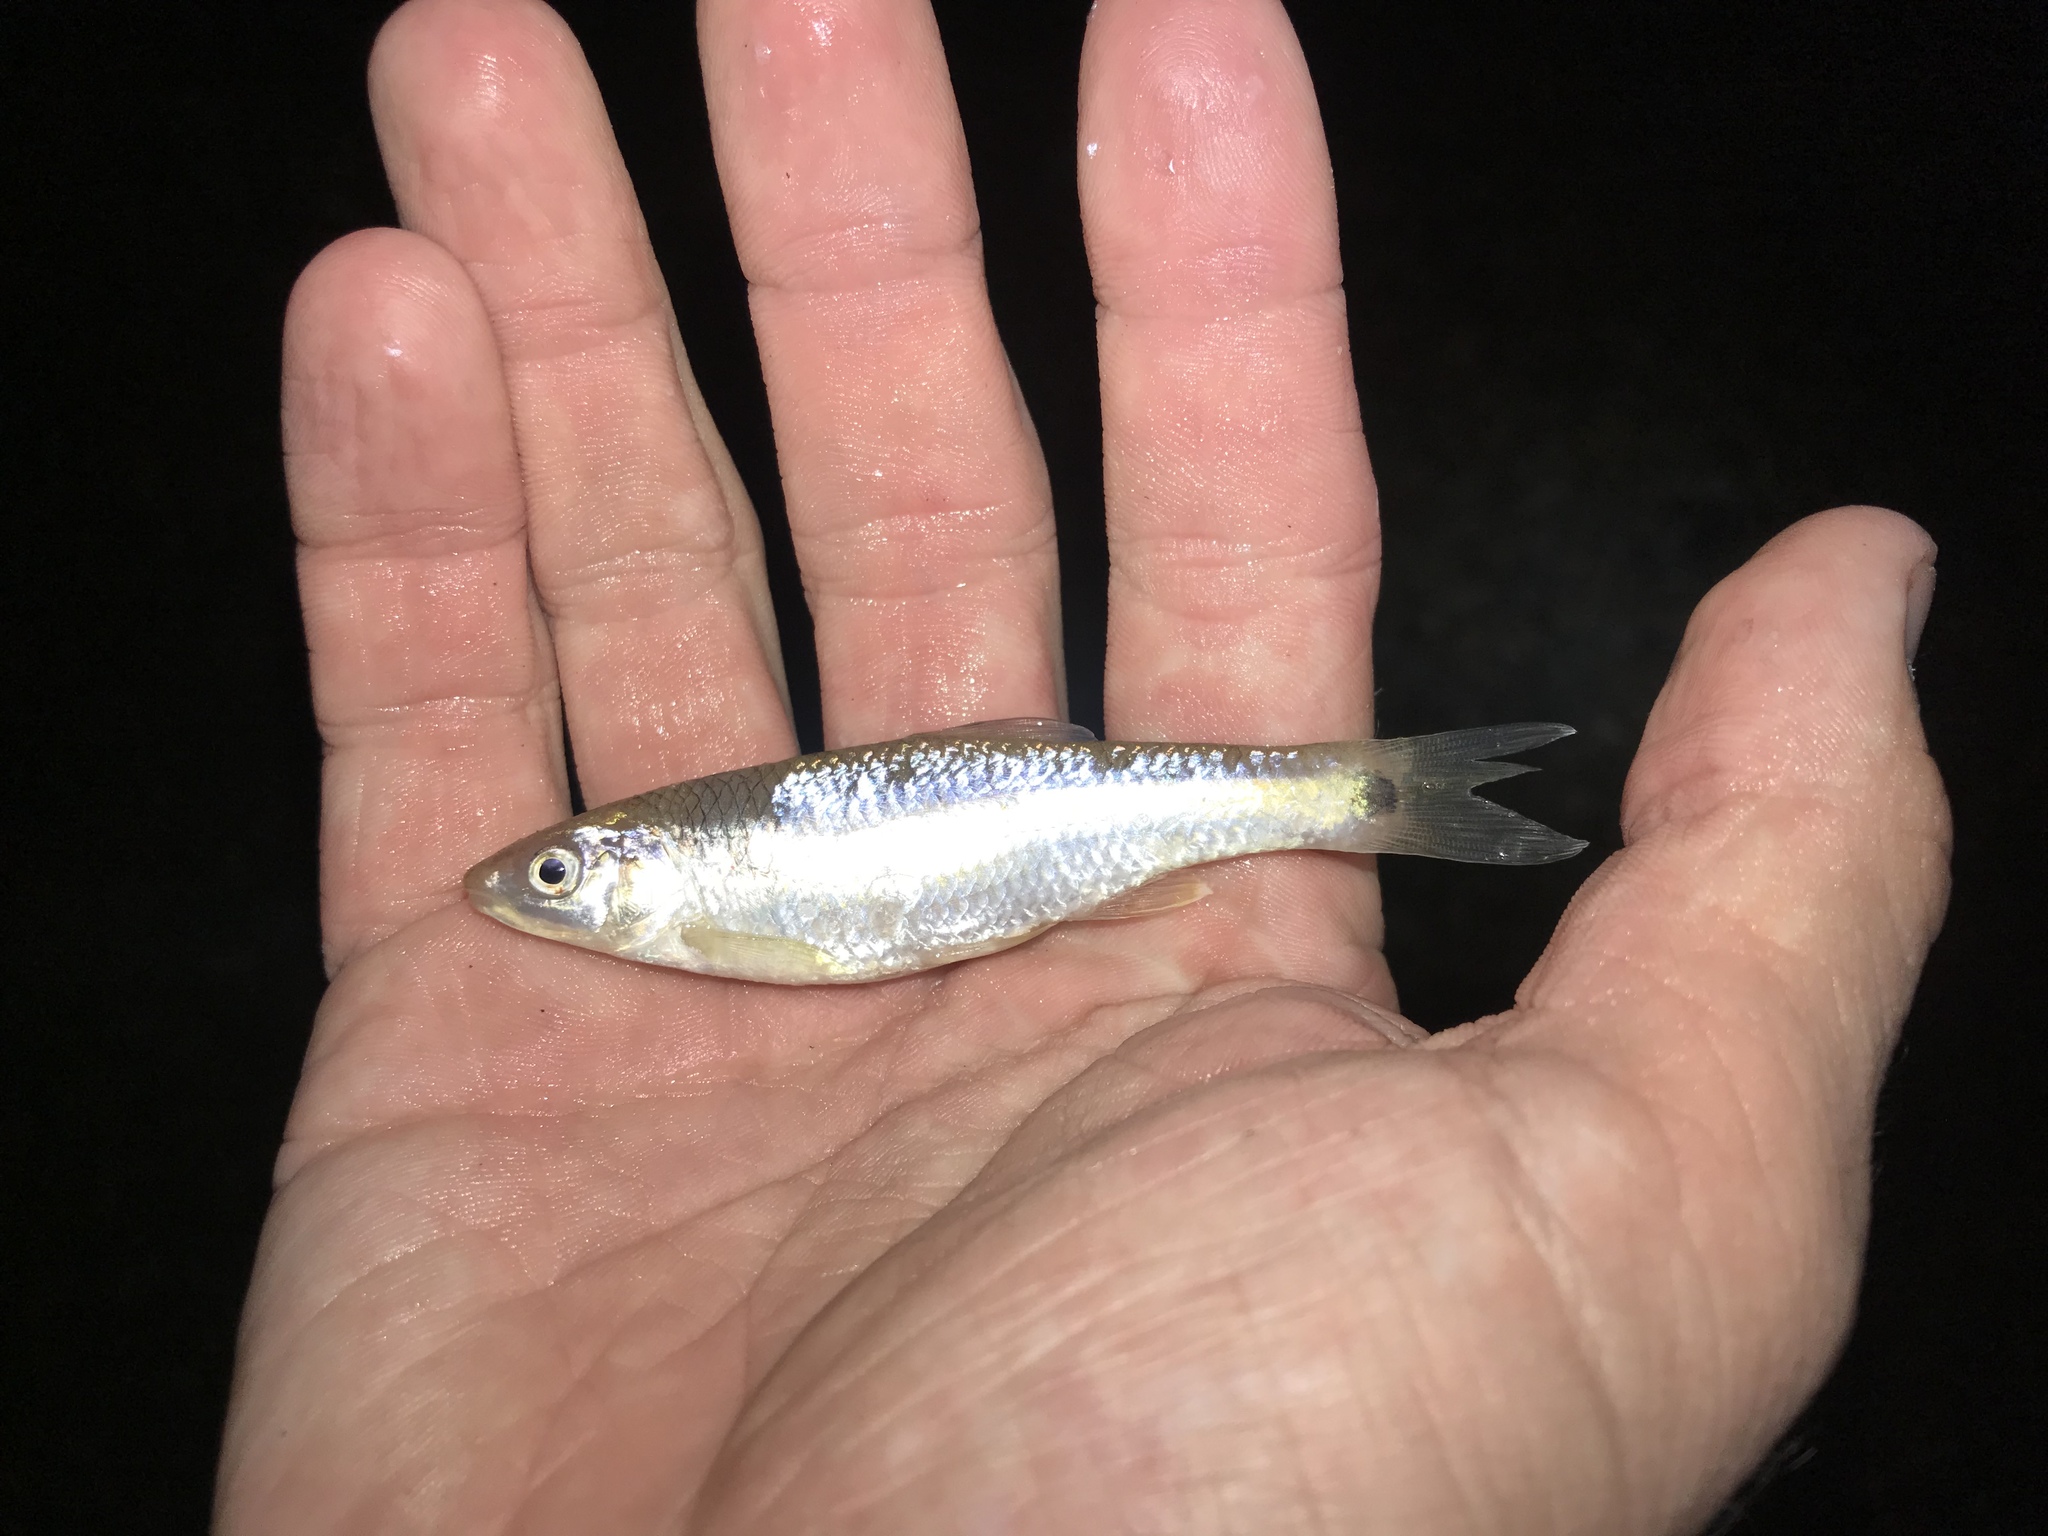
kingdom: Animalia
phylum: Chordata
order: Cypriniformes
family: Cyprinidae
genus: Cyprinella
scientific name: Cyprinella venusta
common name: Blacktail shiner
